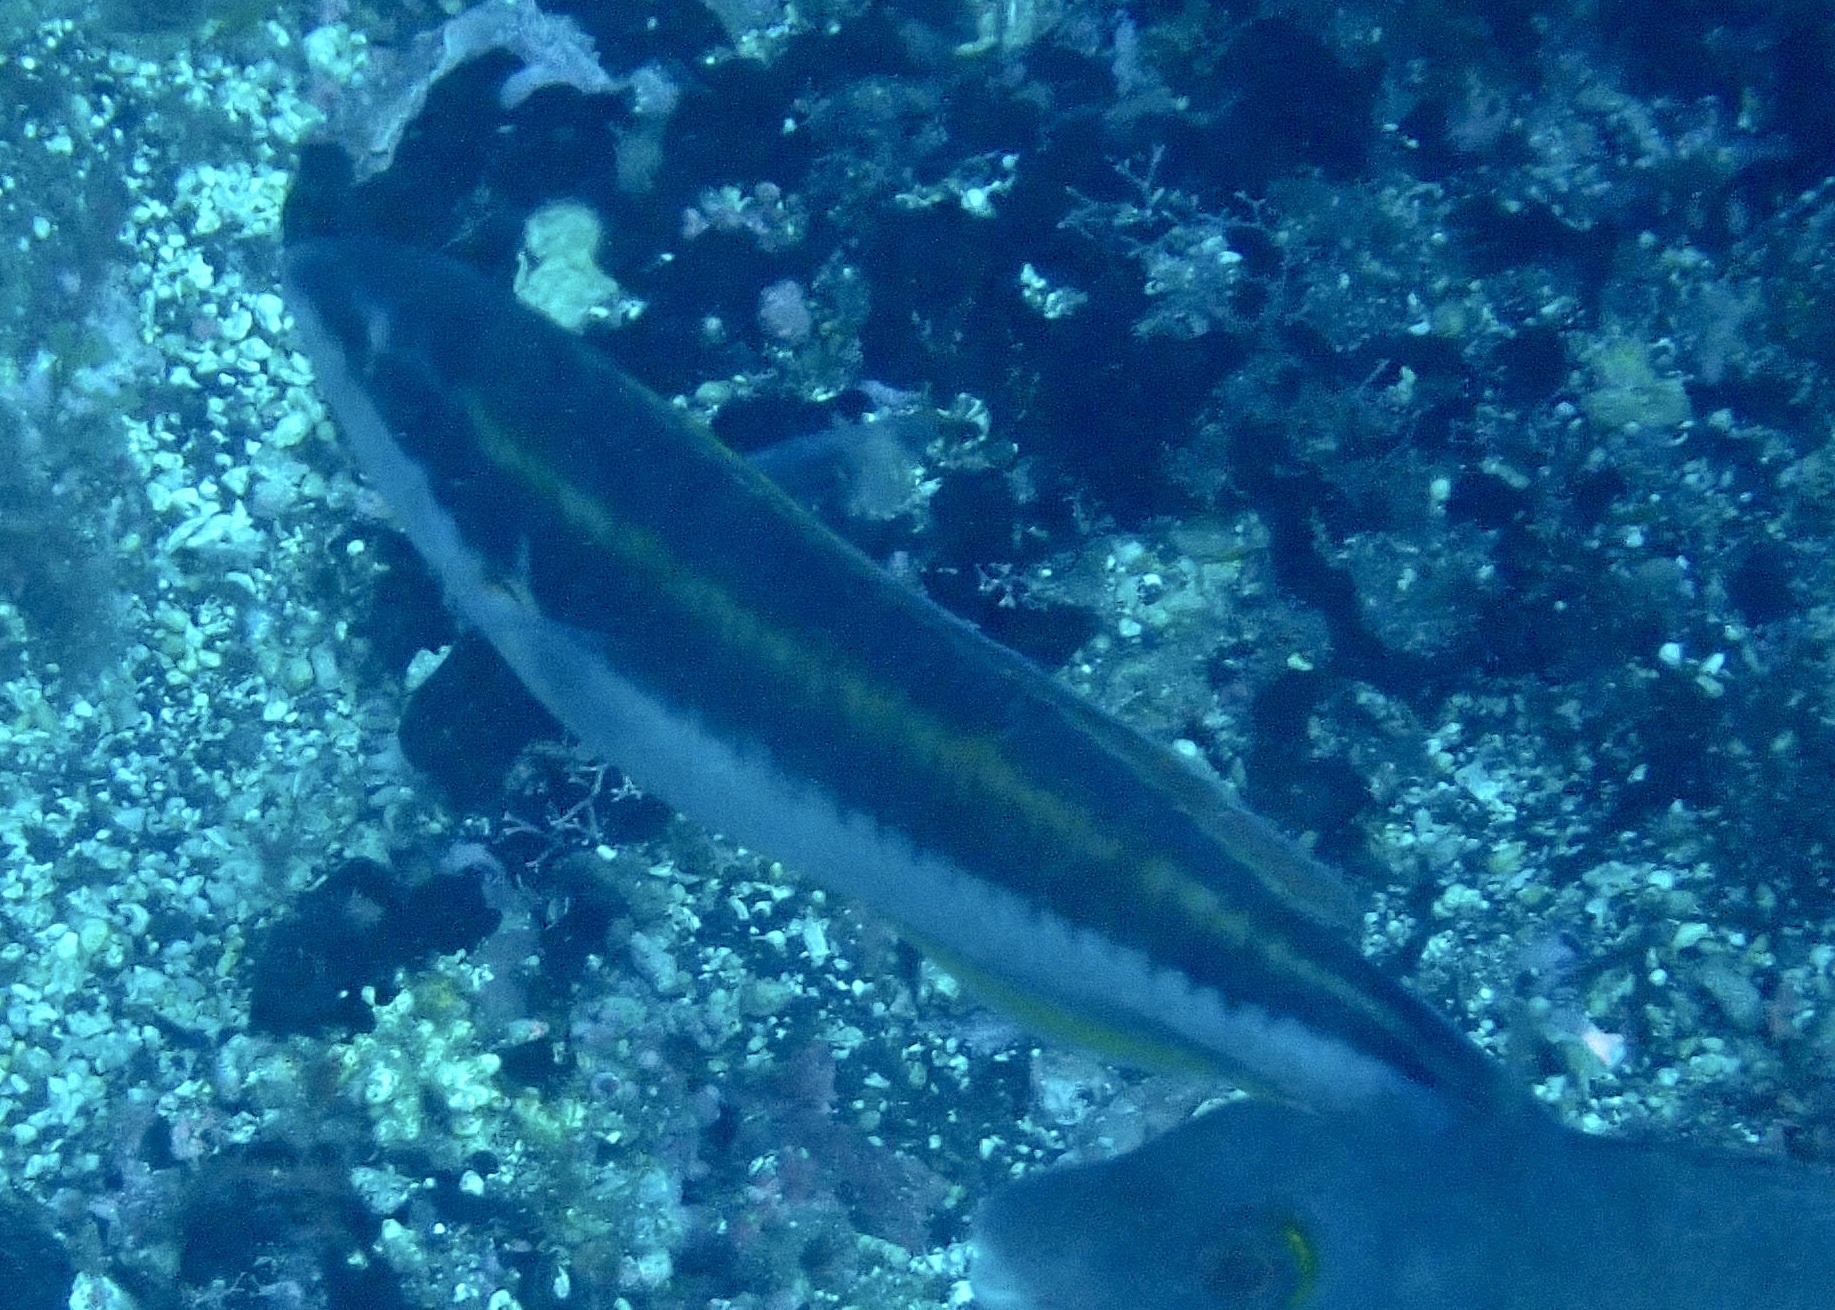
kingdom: Animalia
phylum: Chordata
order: Perciformes
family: Labridae
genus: Thalassoma
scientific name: Thalassoma pavo
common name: Ornate wrasse
